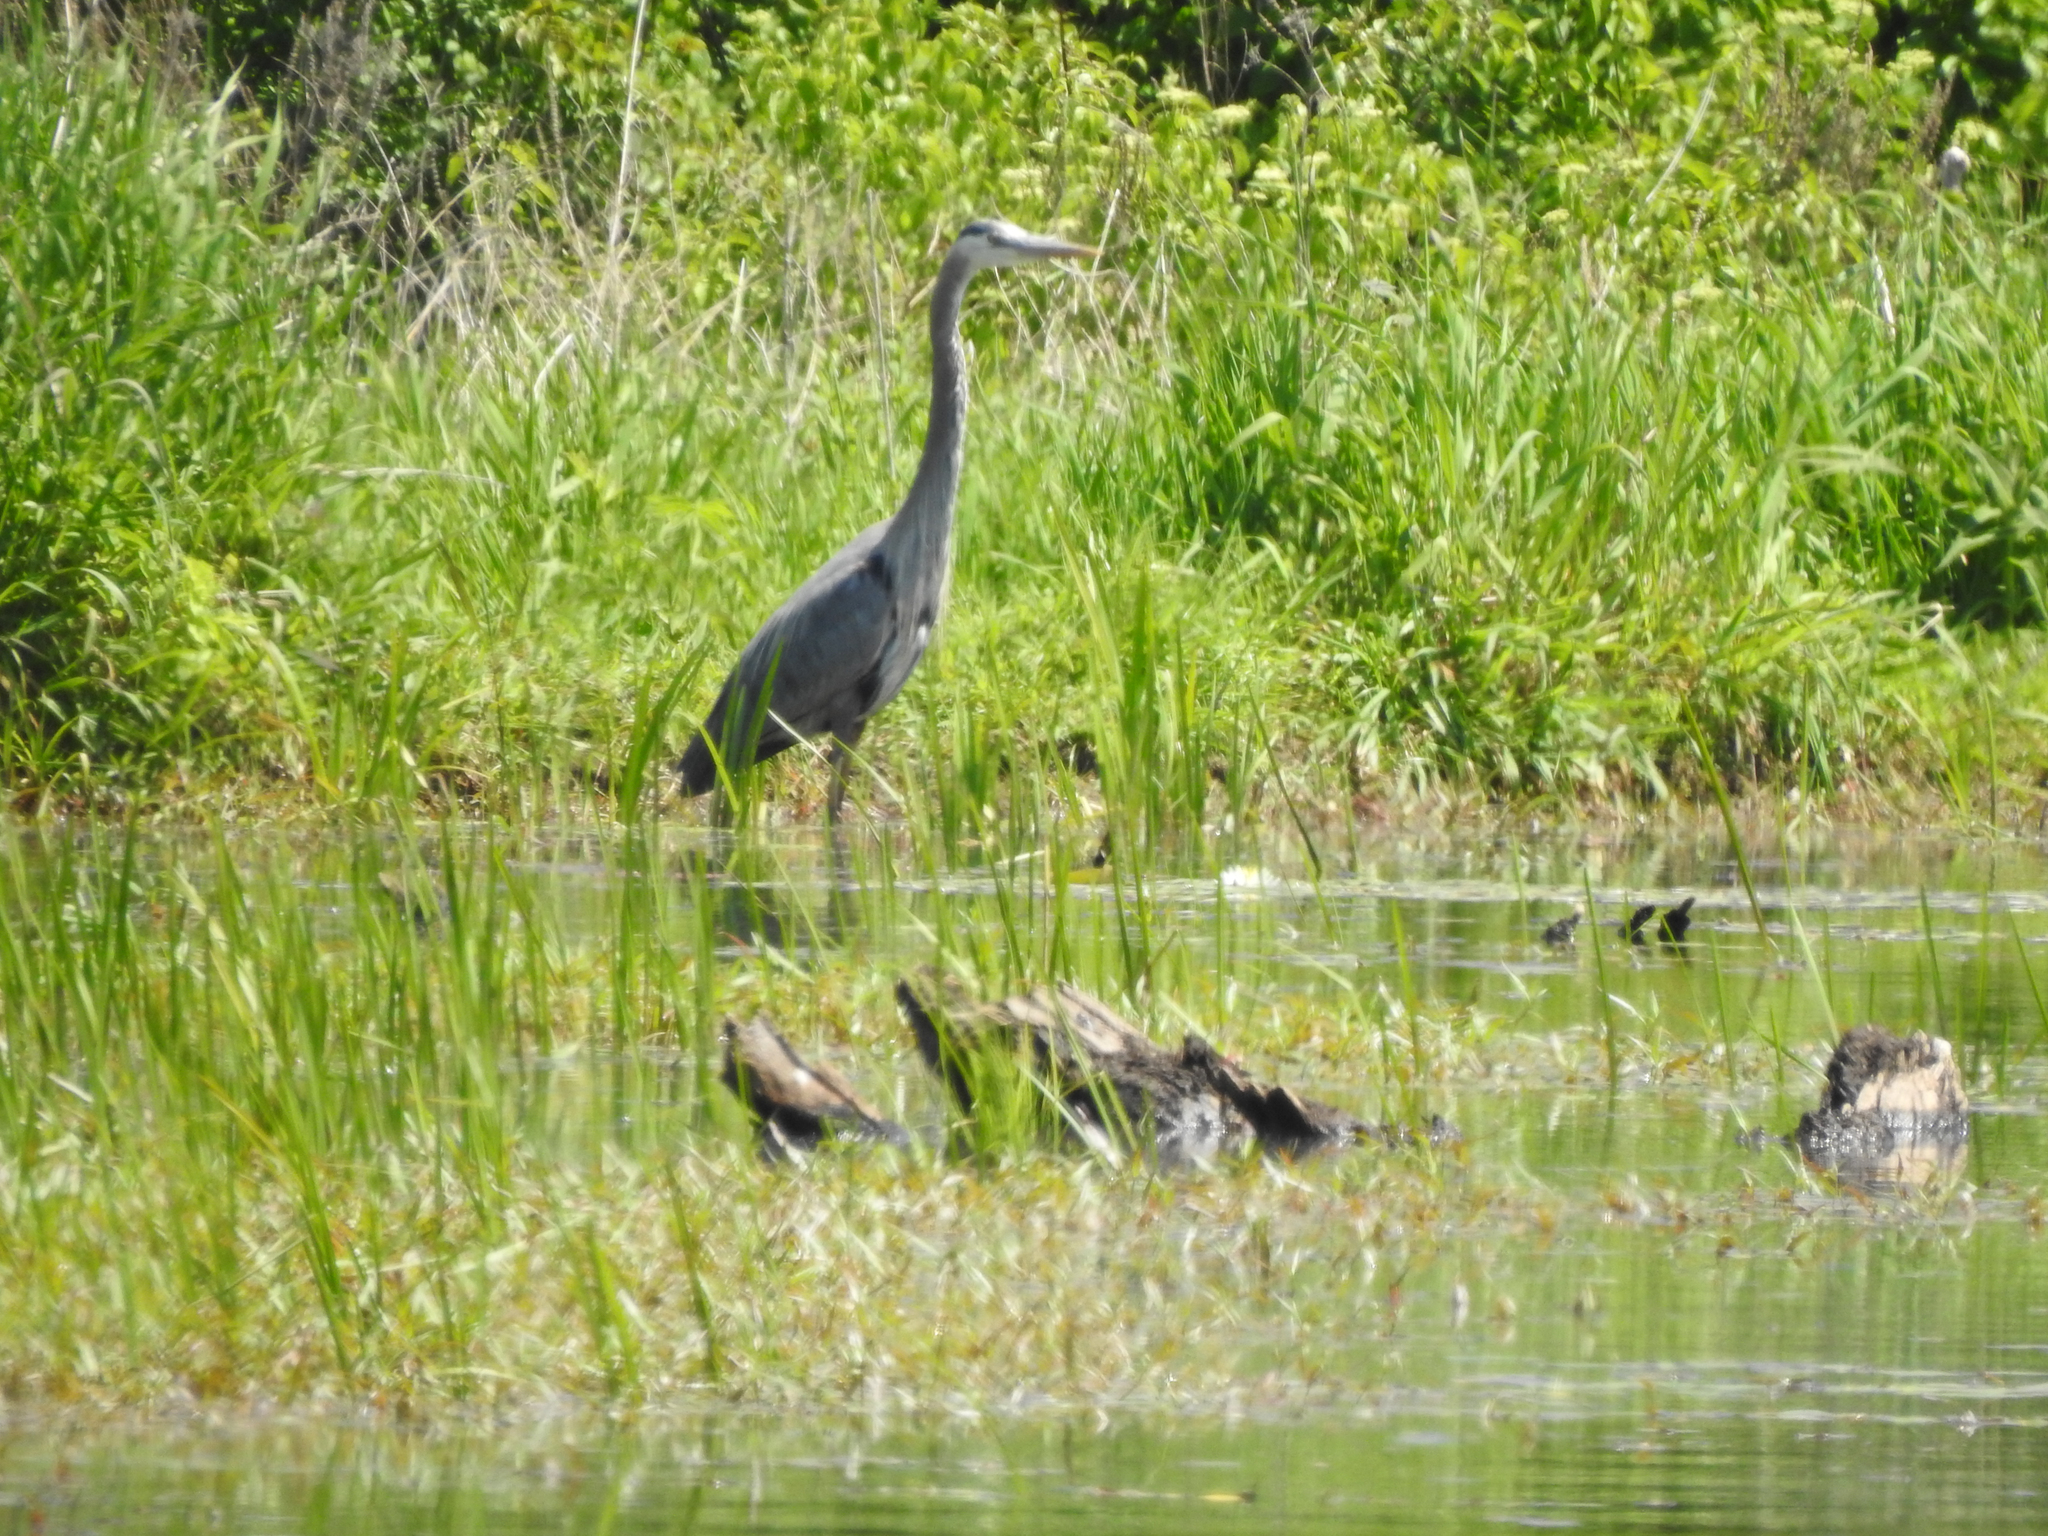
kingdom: Animalia
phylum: Chordata
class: Aves
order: Pelecaniformes
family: Ardeidae
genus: Ardea
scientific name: Ardea herodias
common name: Great blue heron
